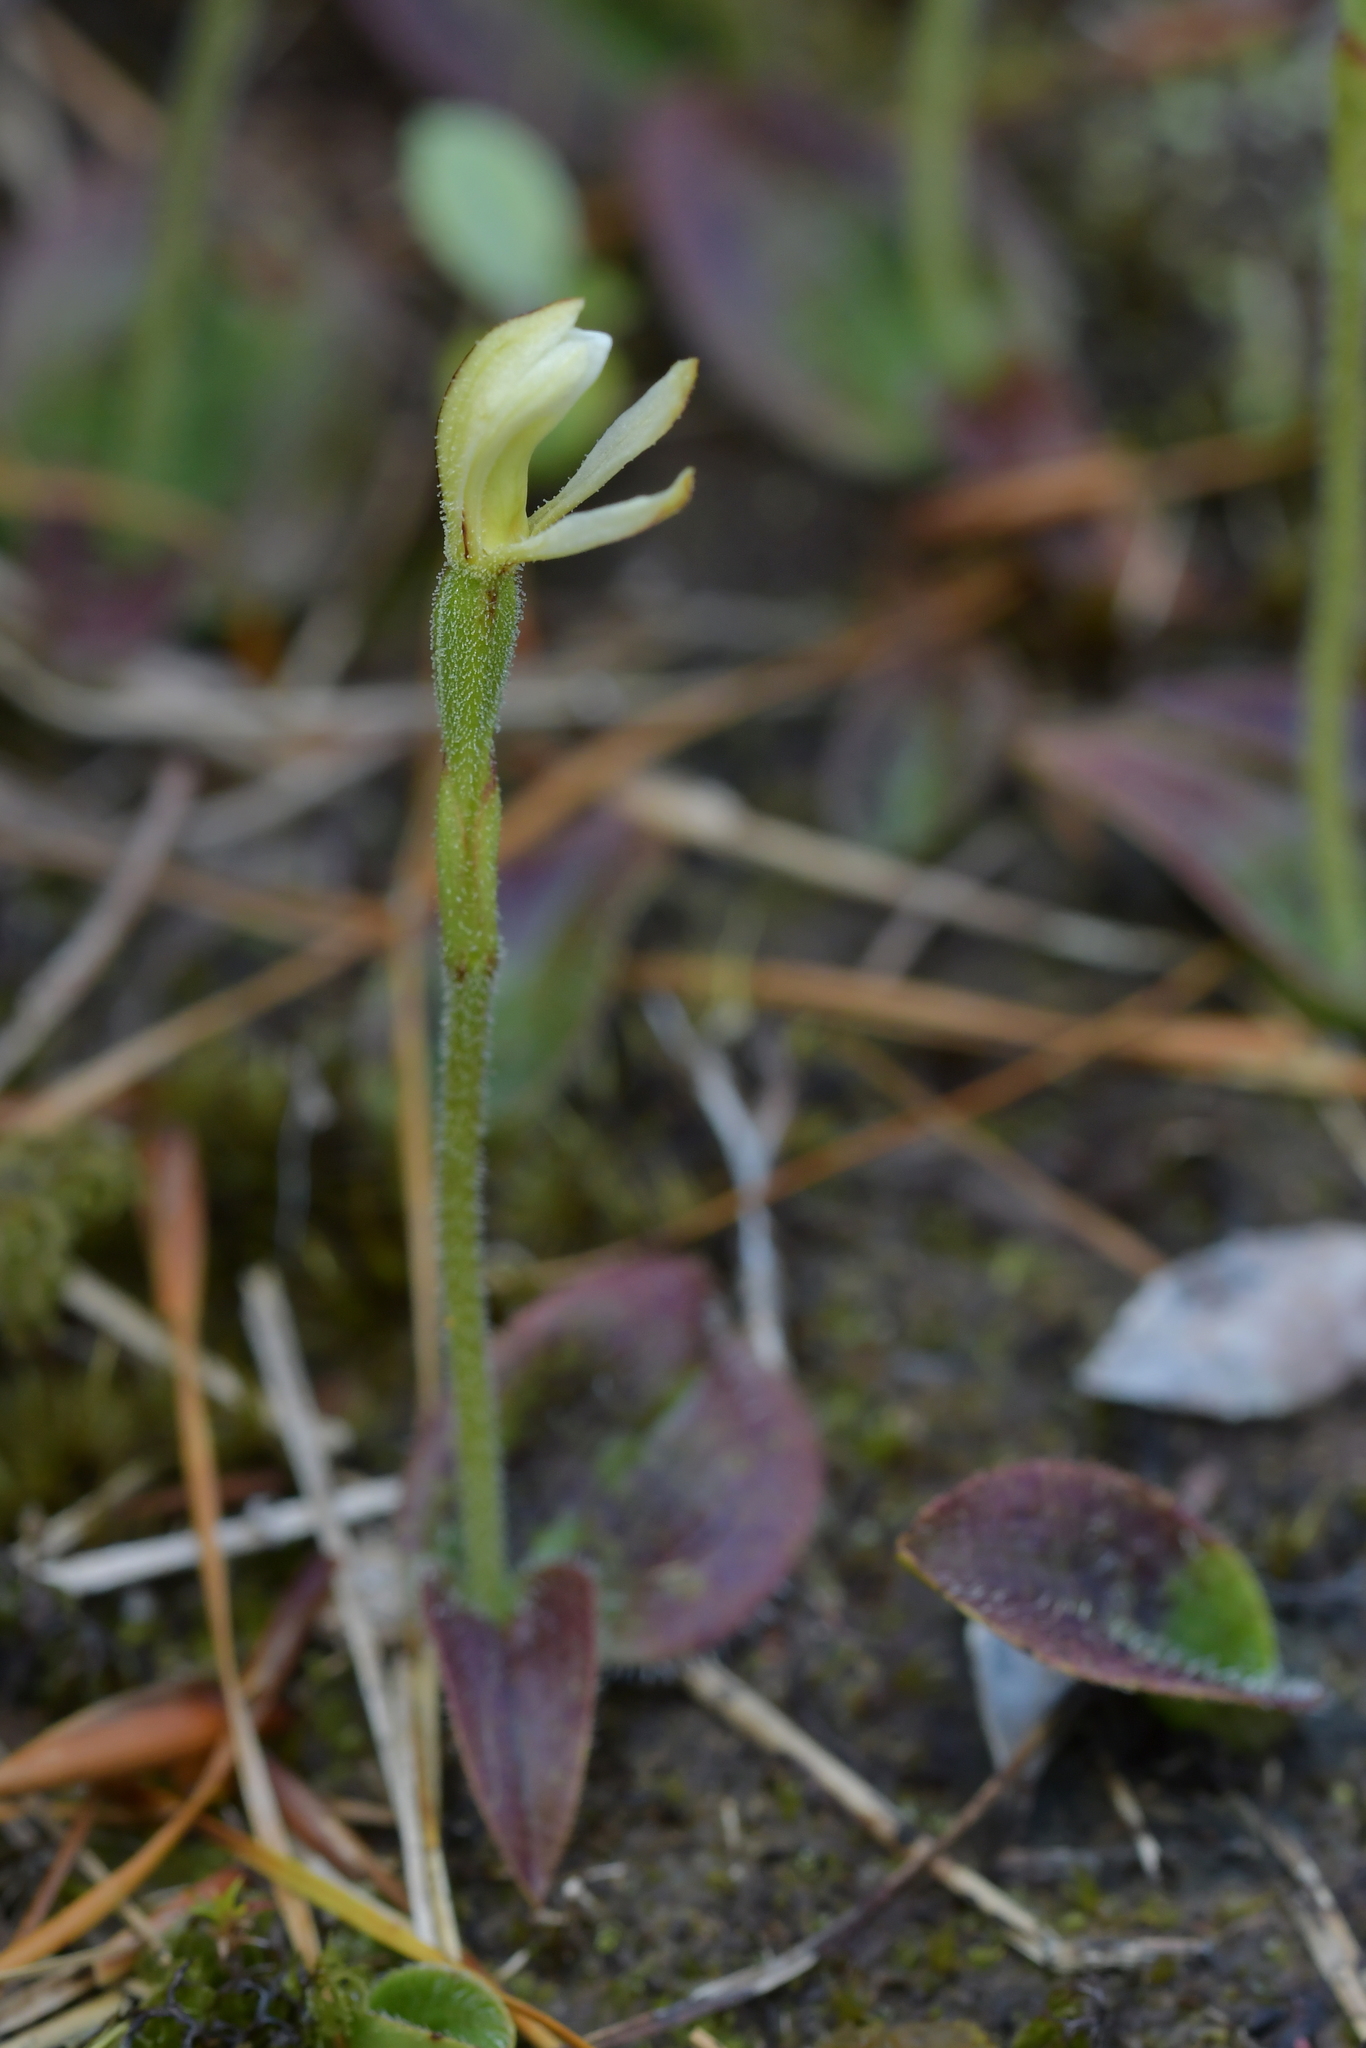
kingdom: Plantae
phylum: Tracheophyta
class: Liliopsida
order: Asparagales
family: Orchidaceae
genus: Aporostylis
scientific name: Aporostylis bifolia
